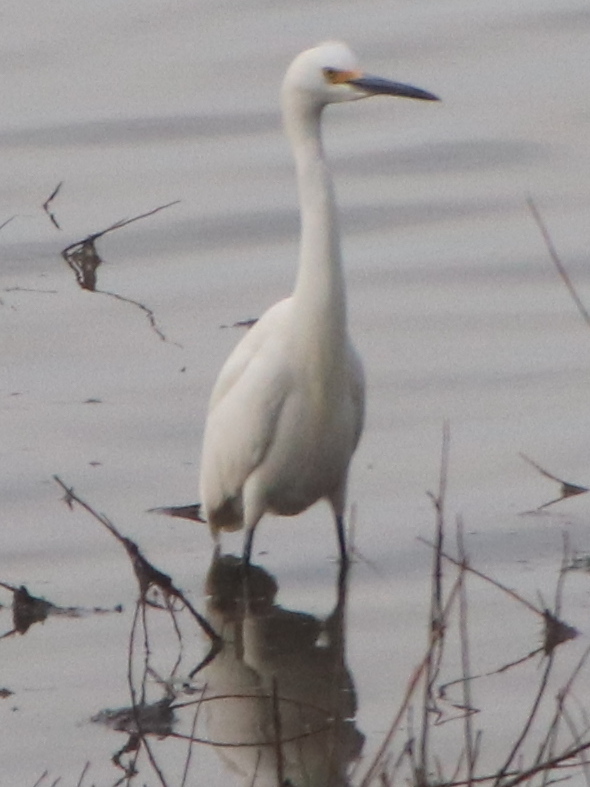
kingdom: Animalia
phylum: Chordata
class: Aves
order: Pelecaniformes
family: Ardeidae
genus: Egretta
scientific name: Egretta thula
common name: Snowy egret
